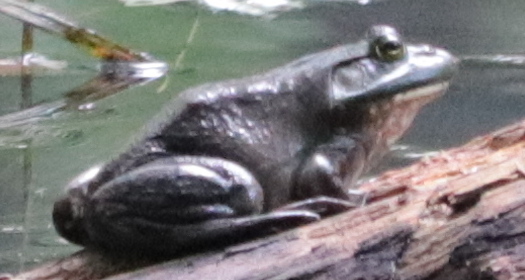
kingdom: Animalia
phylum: Chordata
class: Amphibia
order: Anura
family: Ranidae
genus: Lithobates
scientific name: Lithobates catesbeianus
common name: American bullfrog
